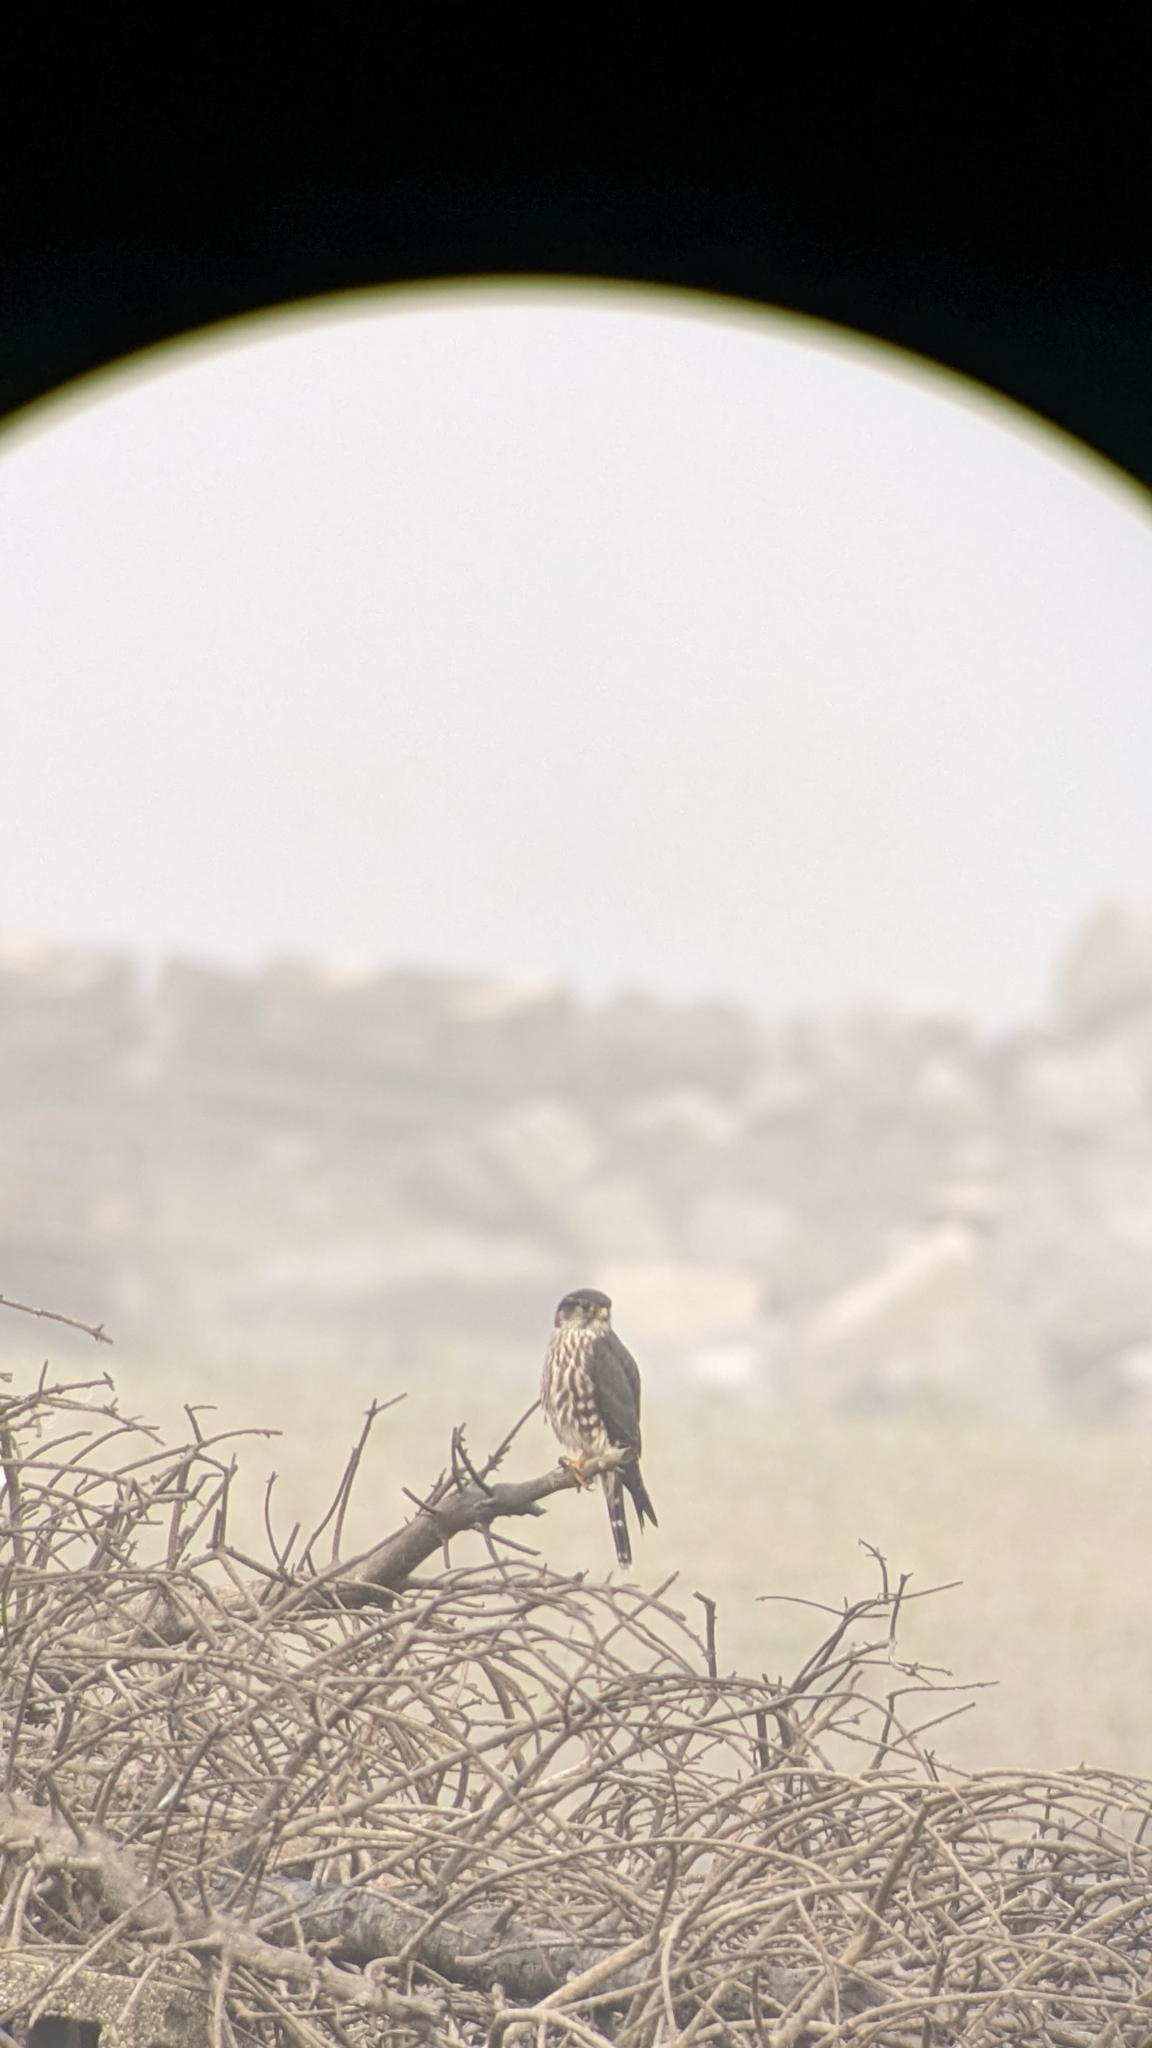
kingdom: Animalia
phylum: Chordata
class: Aves
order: Falconiformes
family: Falconidae
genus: Falco
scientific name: Falco columbarius
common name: Merlin
